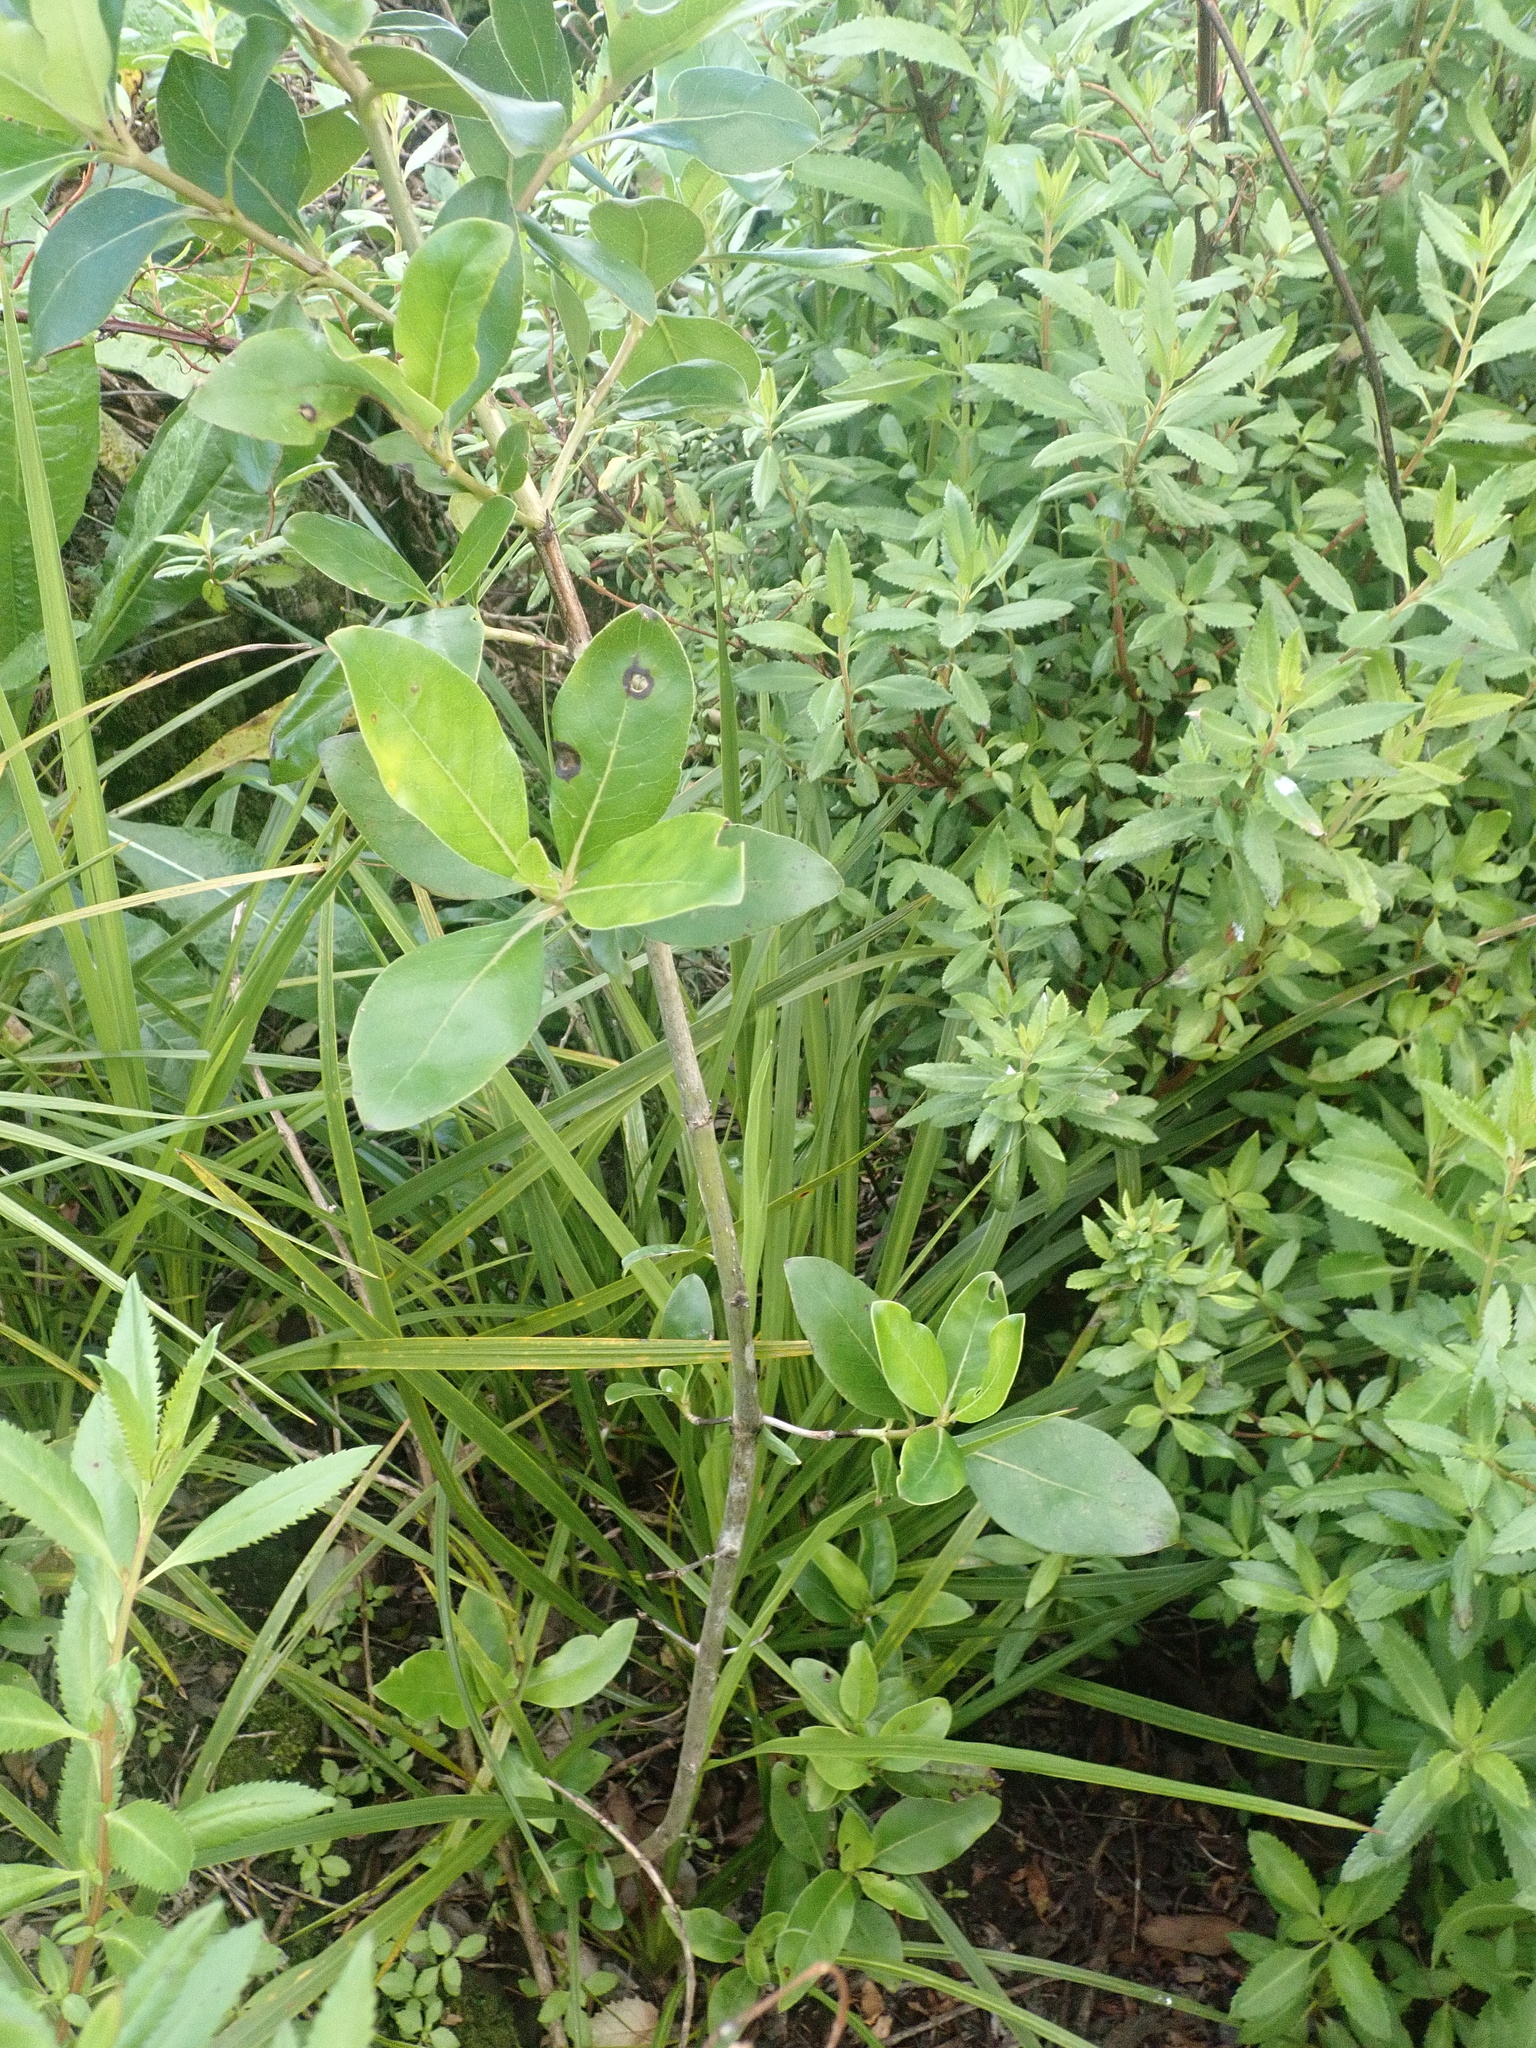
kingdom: Plantae
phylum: Tracheophyta
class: Magnoliopsida
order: Gentianales
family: Rubiaceae
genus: Coprosma
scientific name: Coprosma robusta
